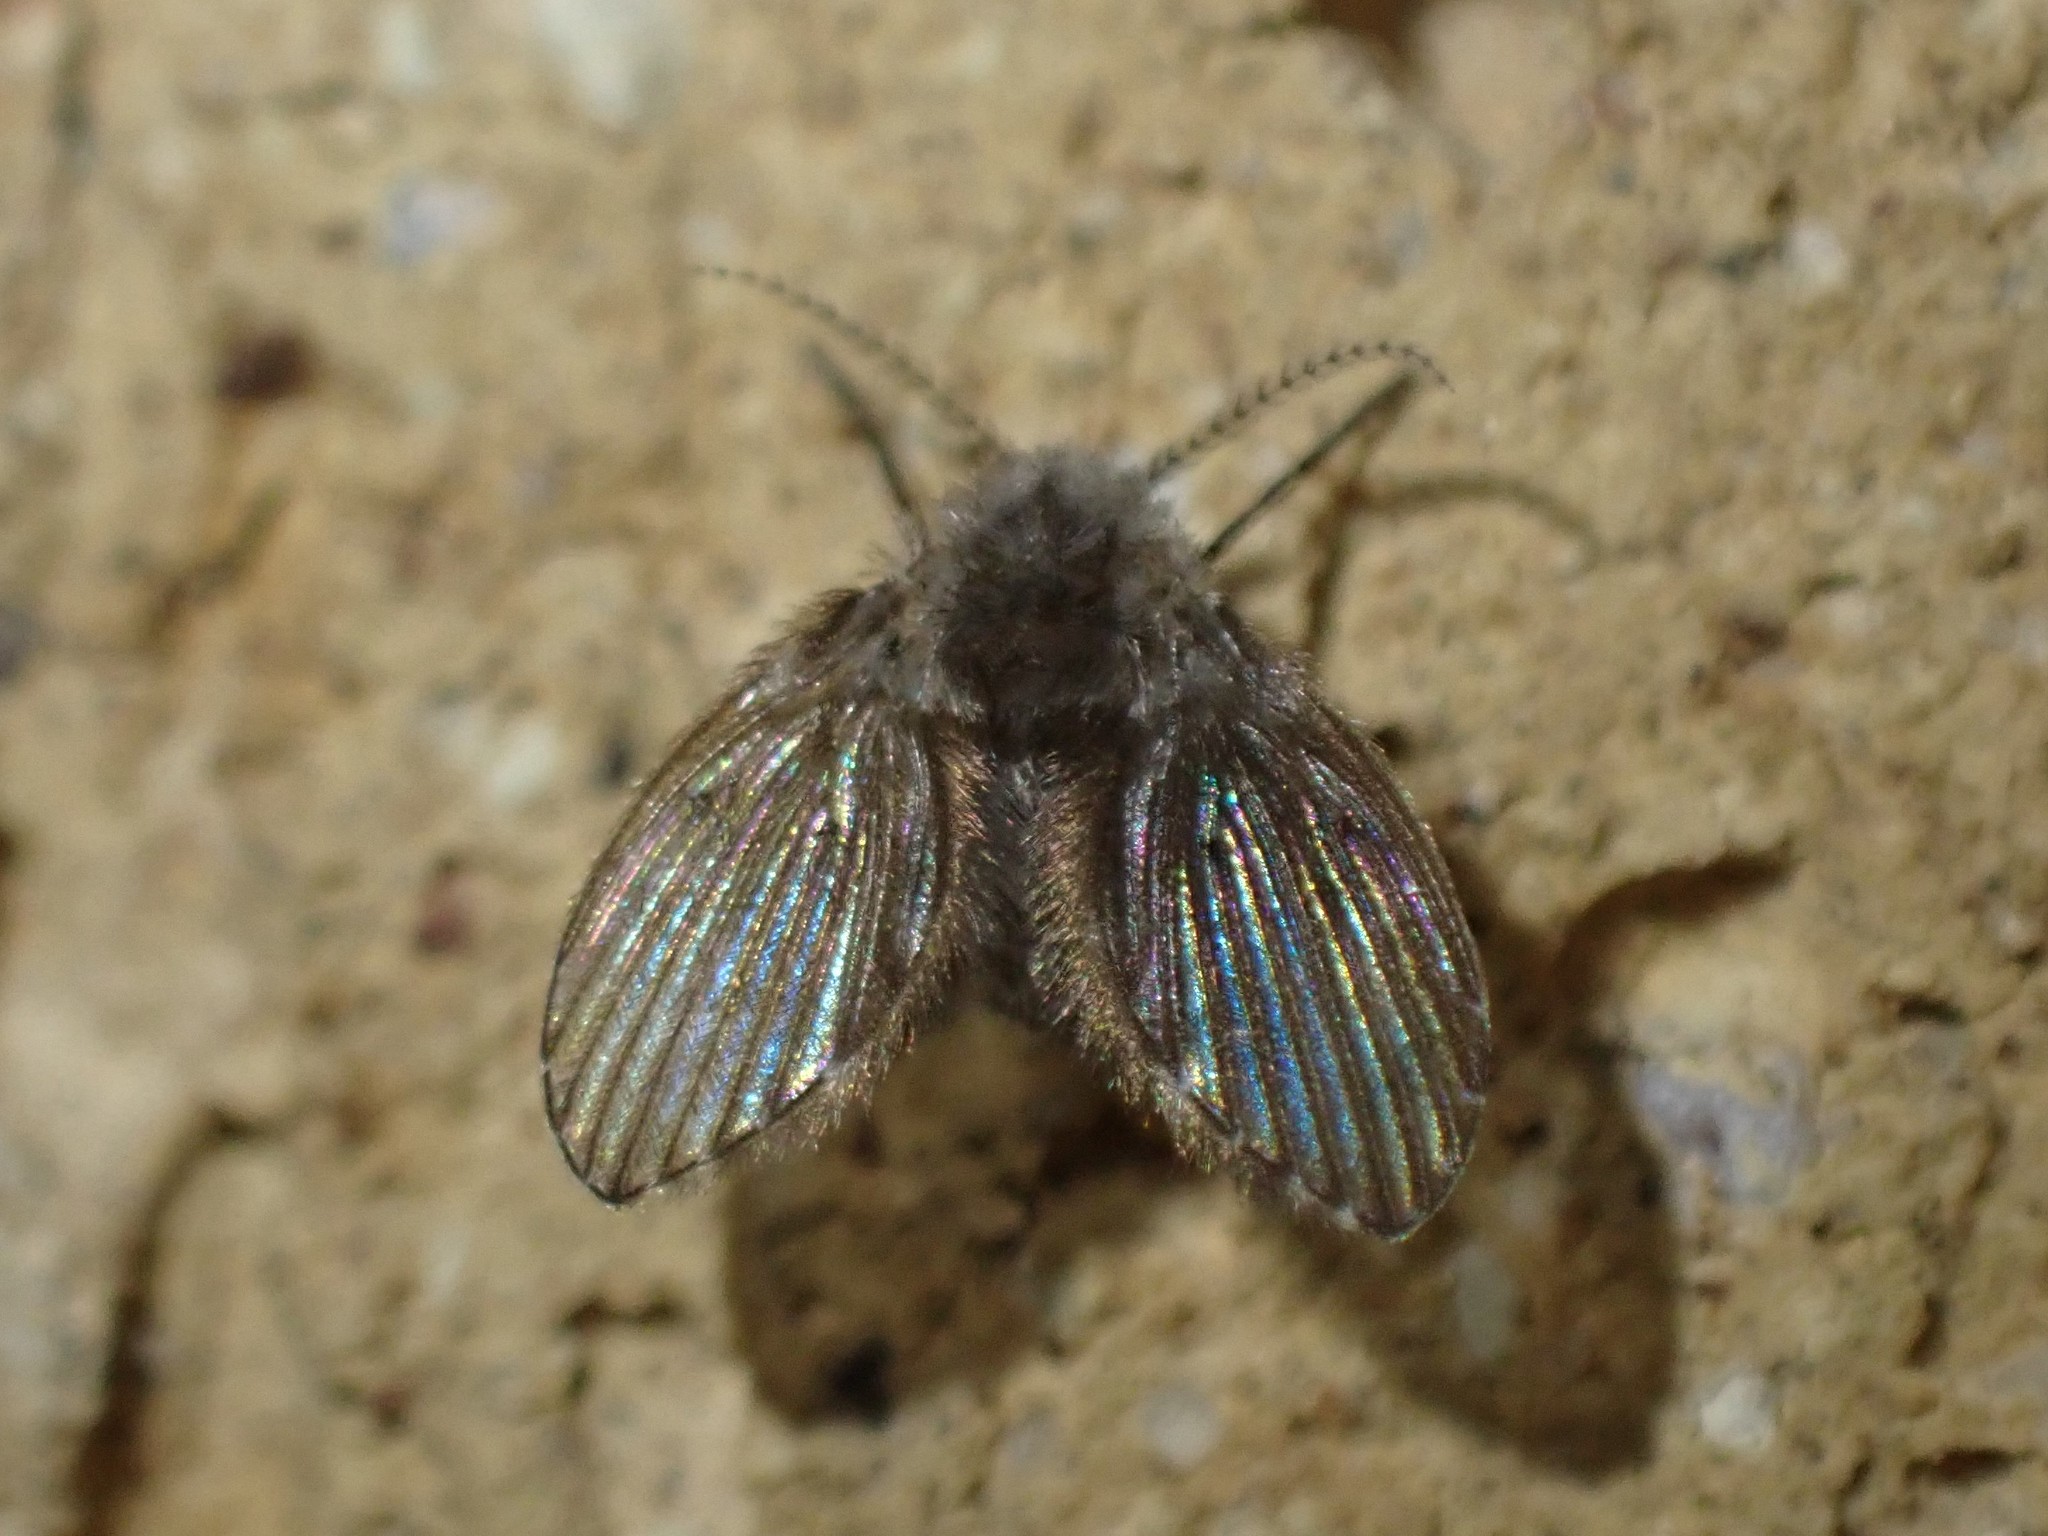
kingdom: Animalia
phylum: Arthropoda
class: Insecta
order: Diptera
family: Psychodidae
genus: Clogmia
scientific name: Clogmia albipunctatus
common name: White-spotted moth fly
